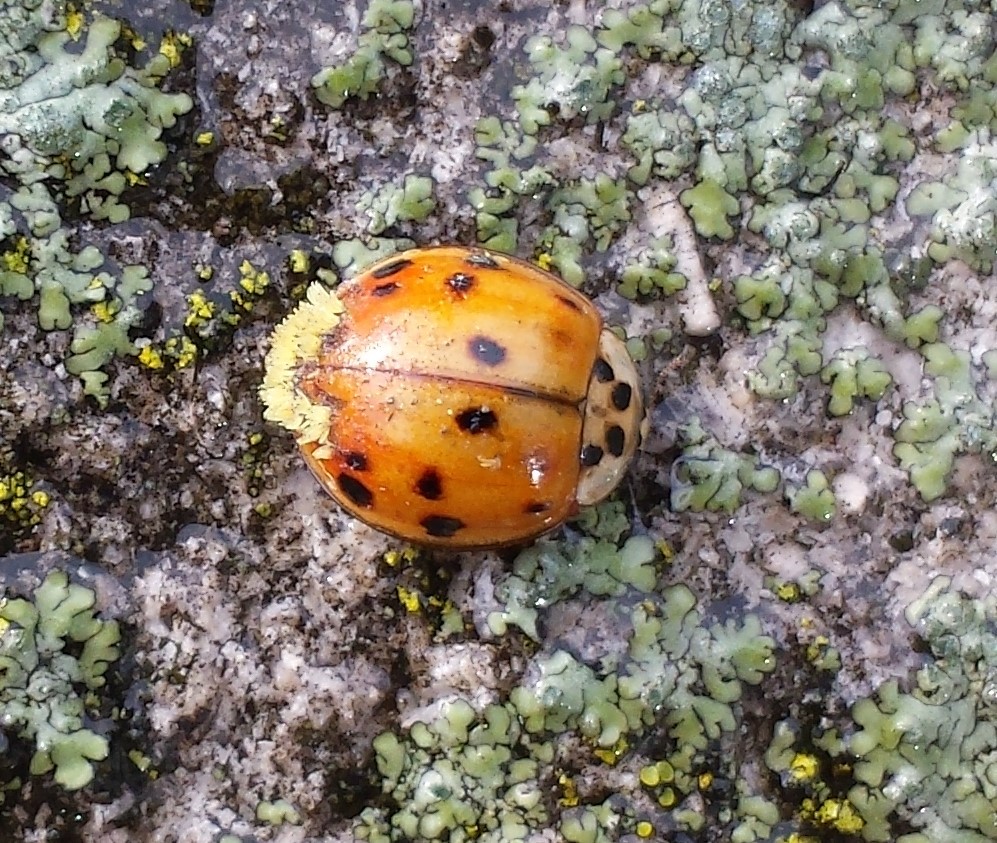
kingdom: Fungi
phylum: Ascomycota
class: Laboulbeniomycetes
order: Laboulbeniales
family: Laboulbeniaceae
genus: Hesperomyces
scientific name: Hesperomyces harmoniae
